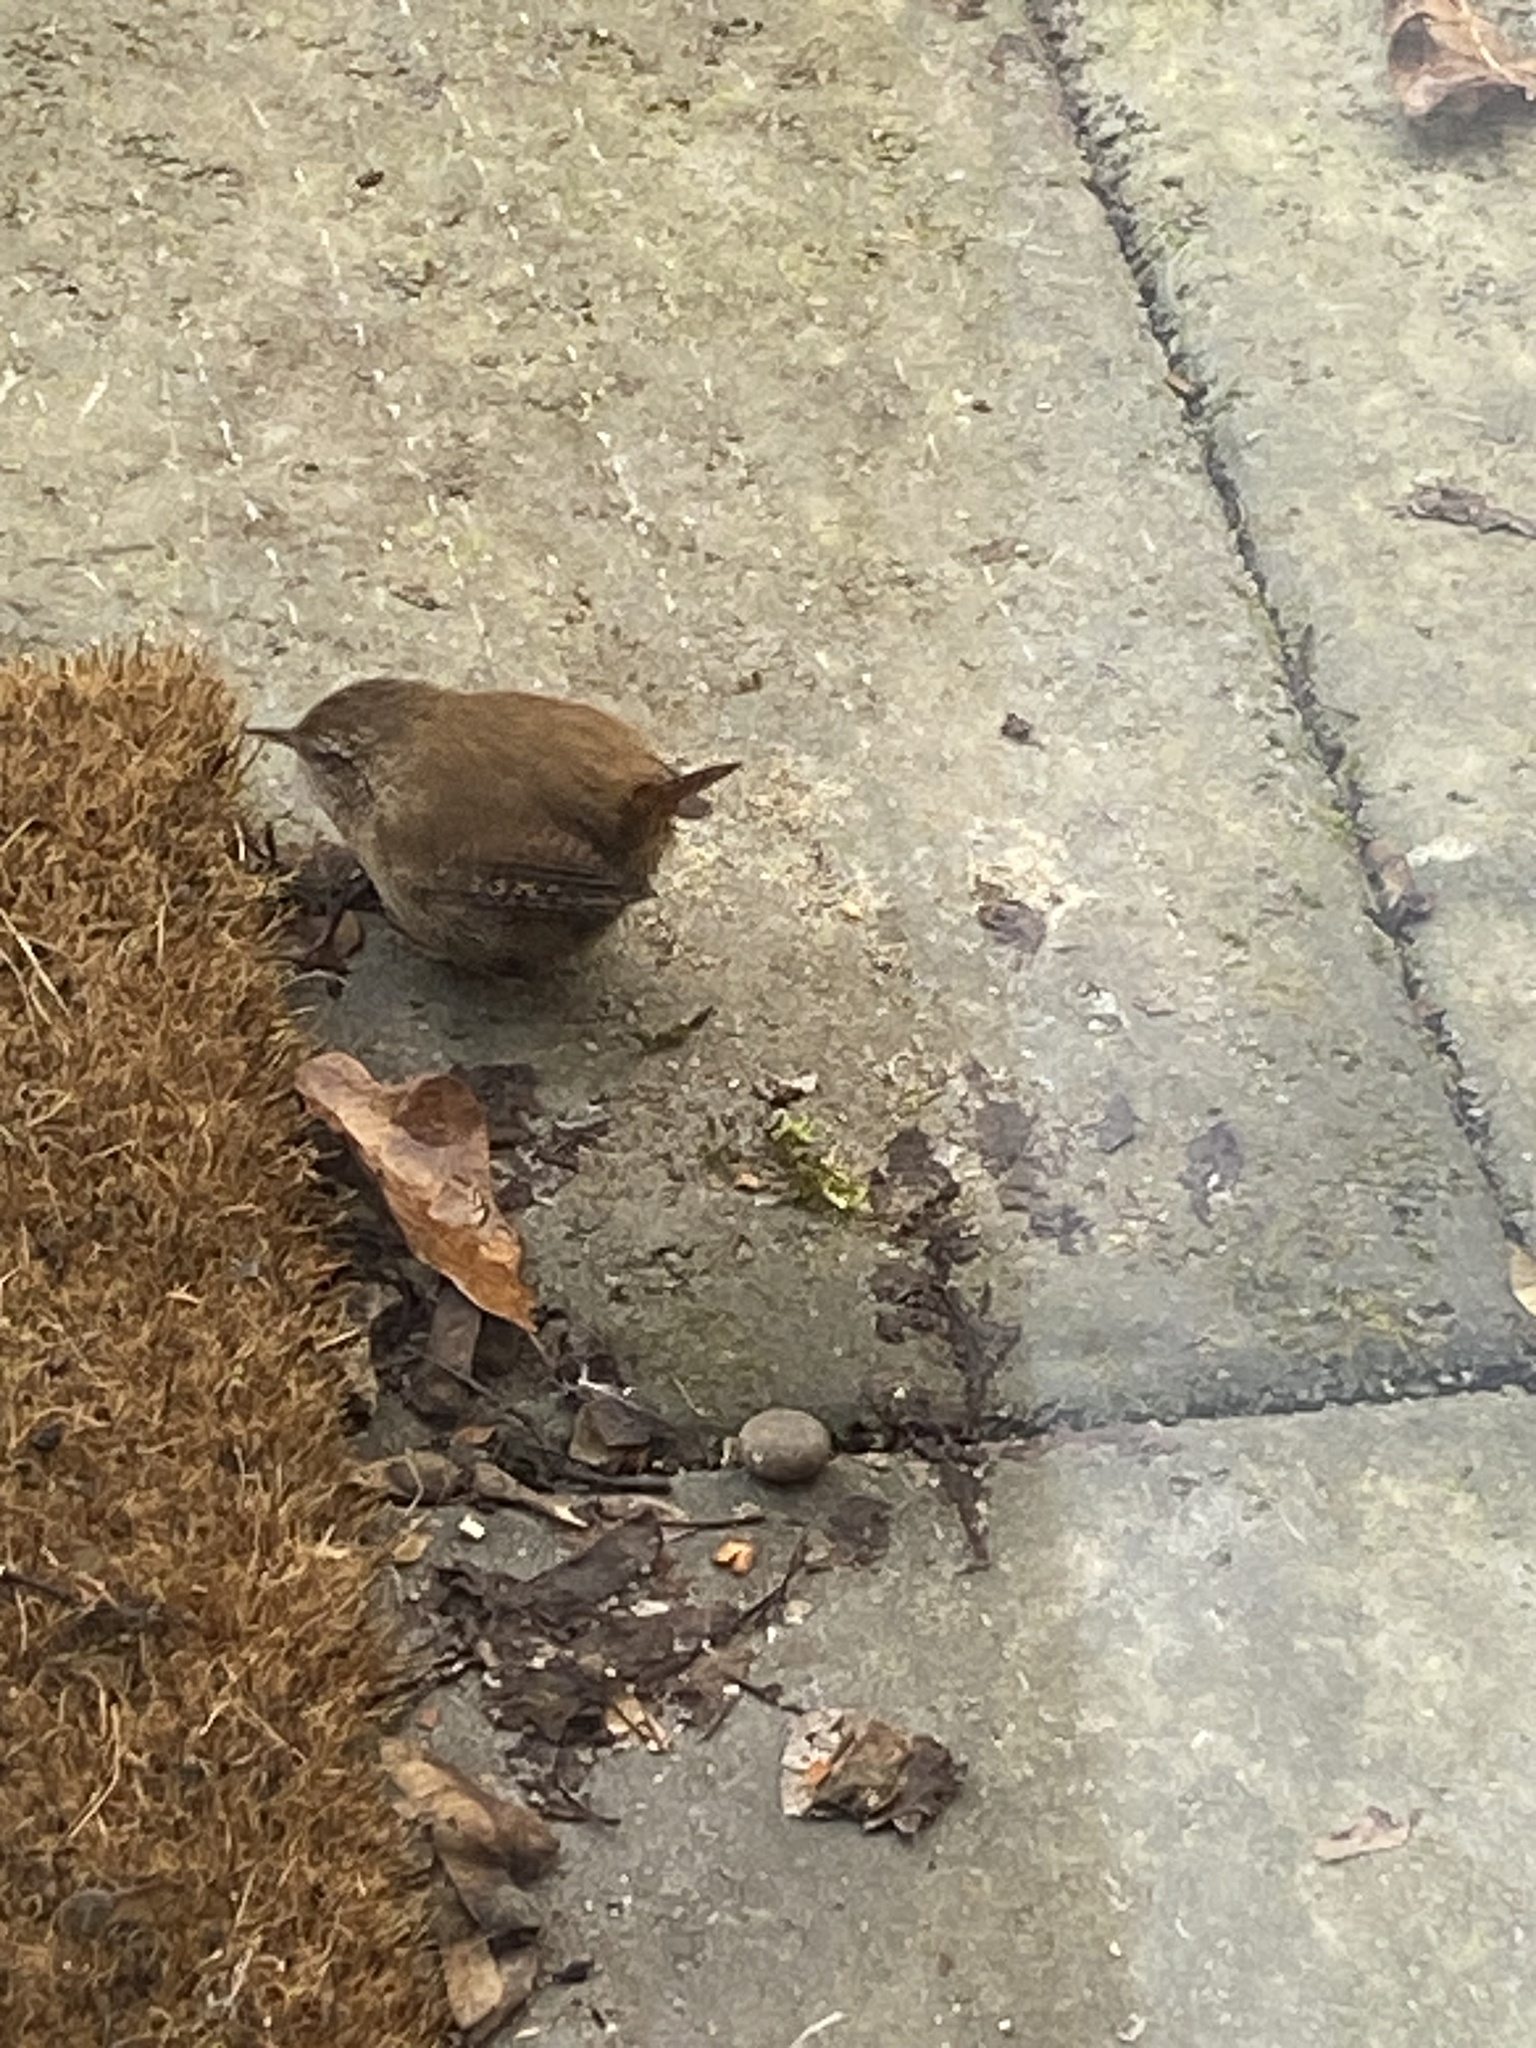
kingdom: Animalia
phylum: Chordata
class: Aves
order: Passeriformes
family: Troglodytidae
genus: Troglodytes
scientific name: Troglodytes troglodytes
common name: Eurasian wren
